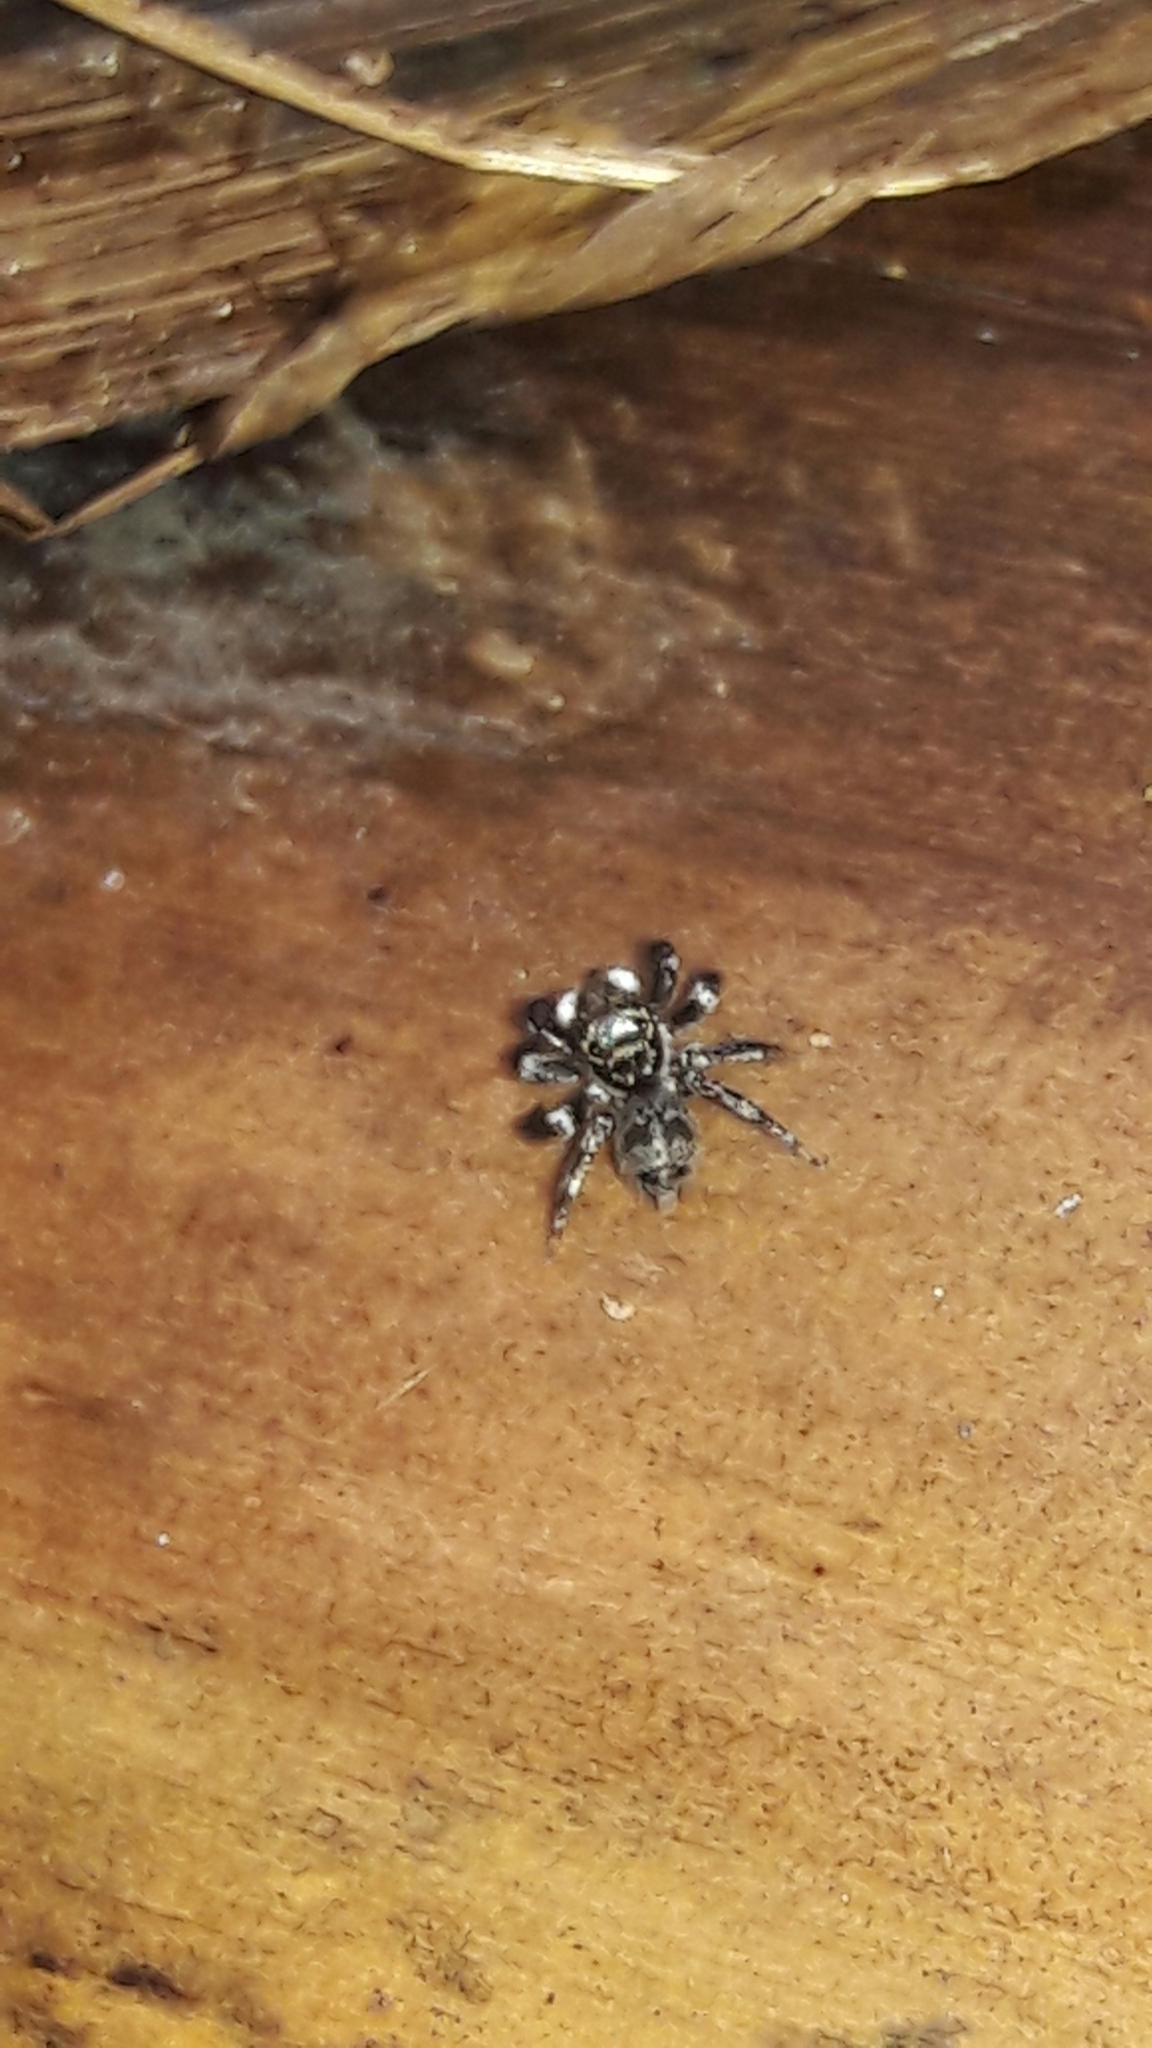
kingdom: Animalia
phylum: Arthropoda
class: Arachnida
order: Araneae
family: Salticidae
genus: Corythalia
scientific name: Corythalia conferta
